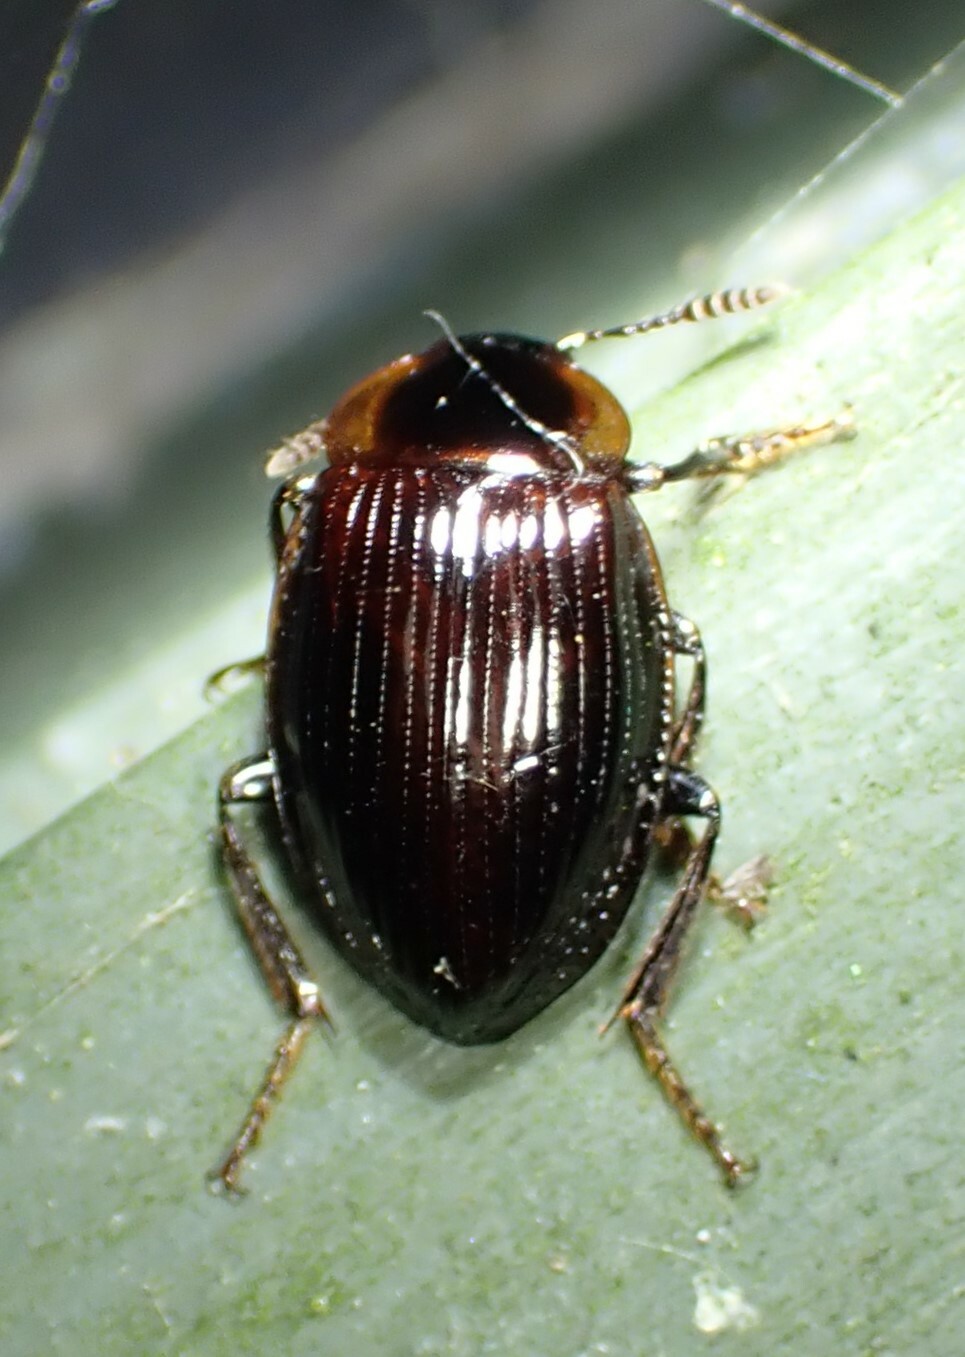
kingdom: Animalia
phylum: Arthropoda
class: Insecta
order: Coleoptera
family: Agyrtidae
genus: Zeanecrophilus
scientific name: Zeanecrophilus prolongatus
